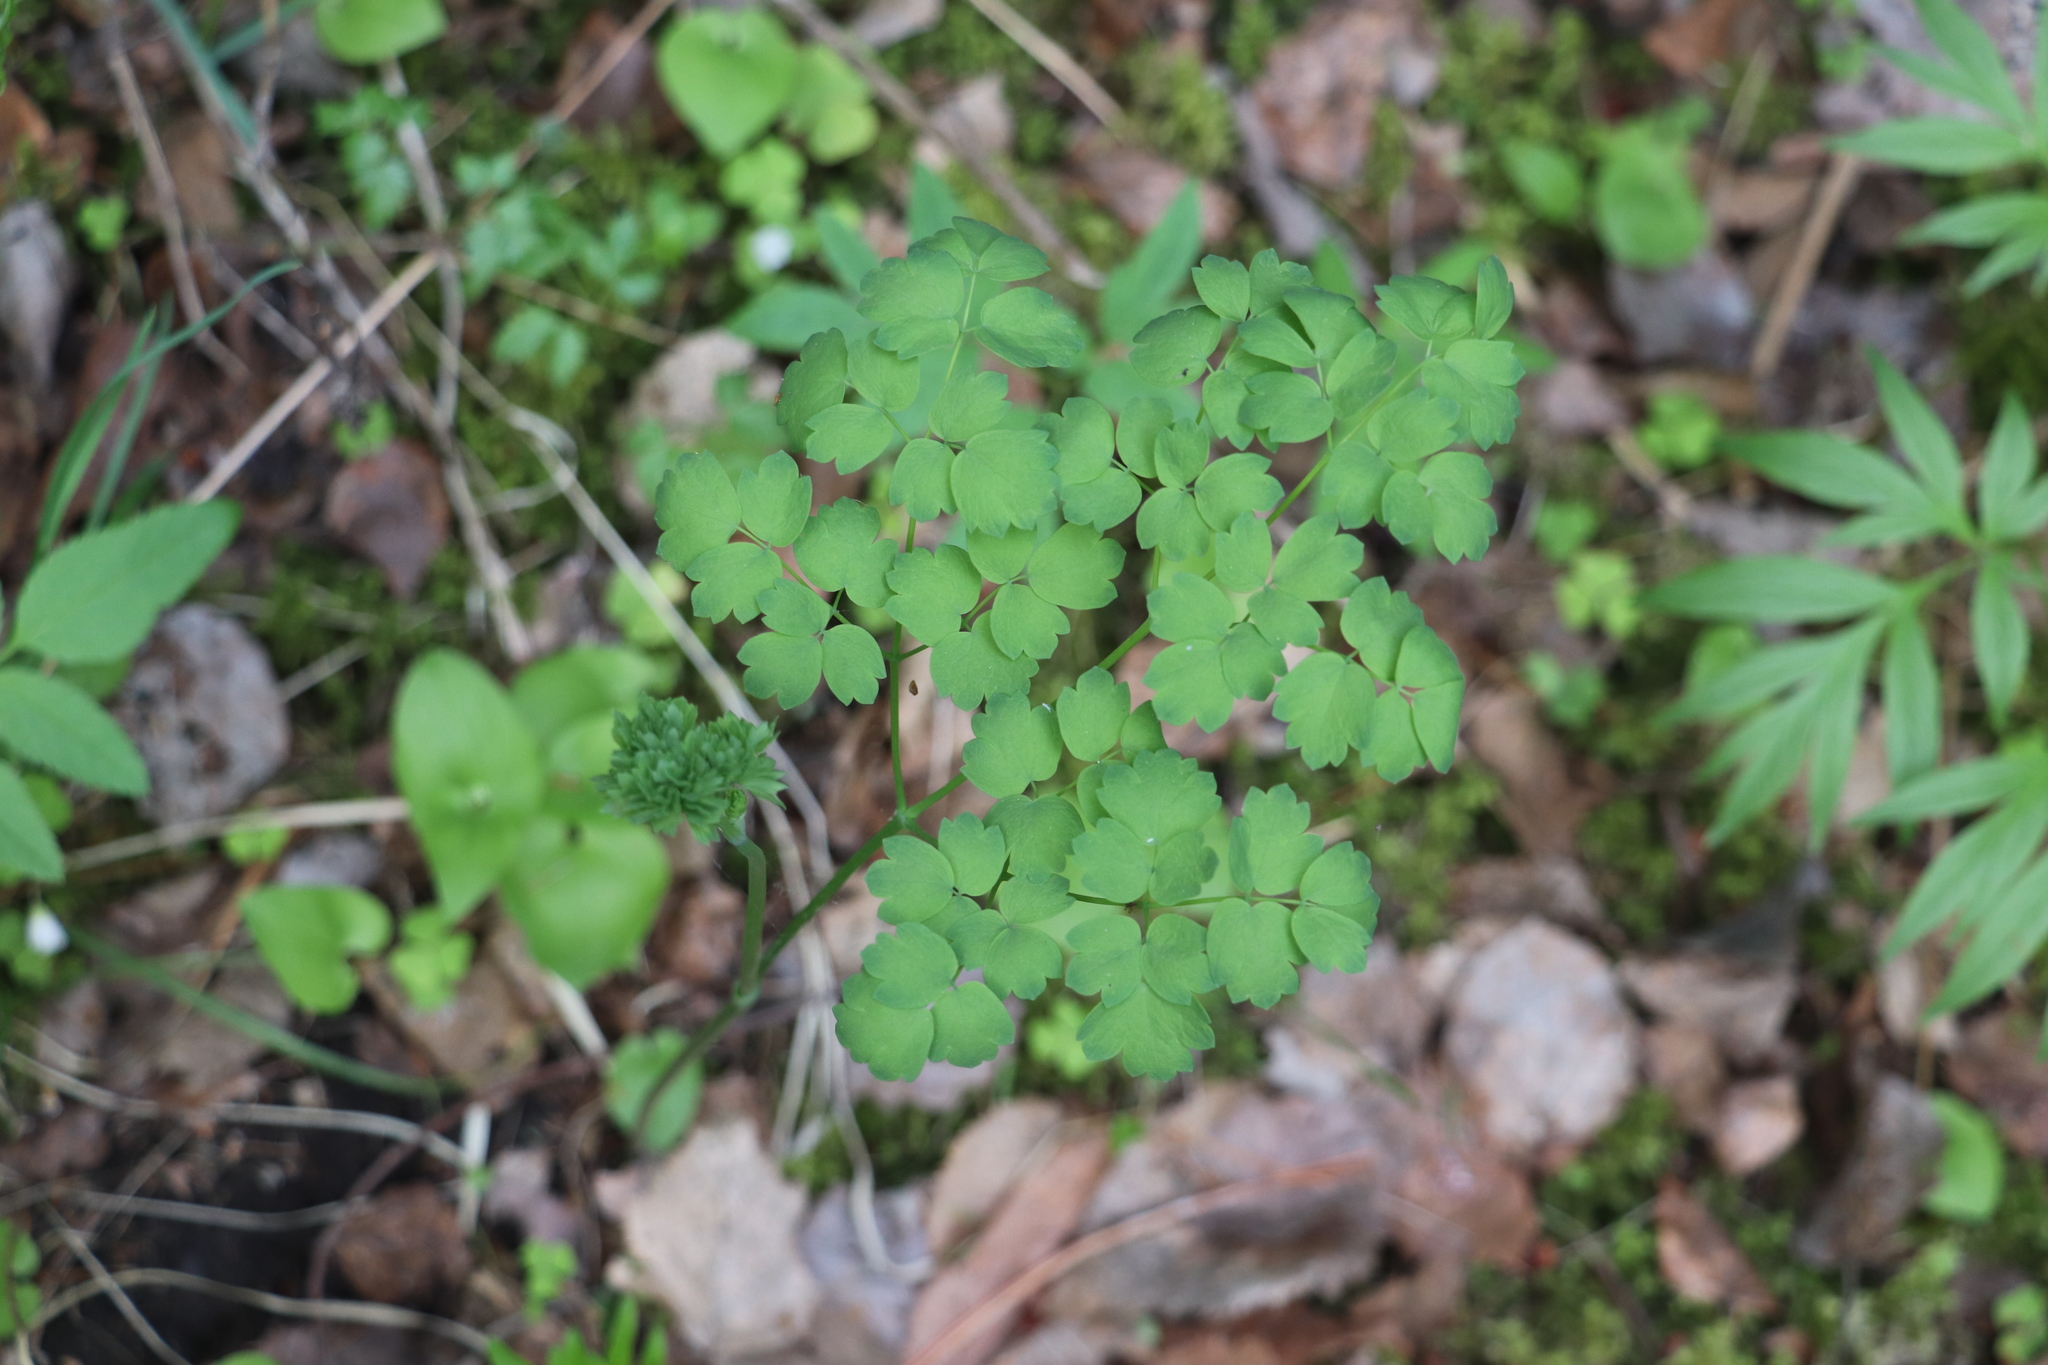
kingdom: Plantae
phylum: Tracheophyta
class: Magnoliopsida
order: Ranunculales
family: Ranunculaceae
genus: Thalictrum
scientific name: Thalictrum minus
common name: Lesser meadow-rue
